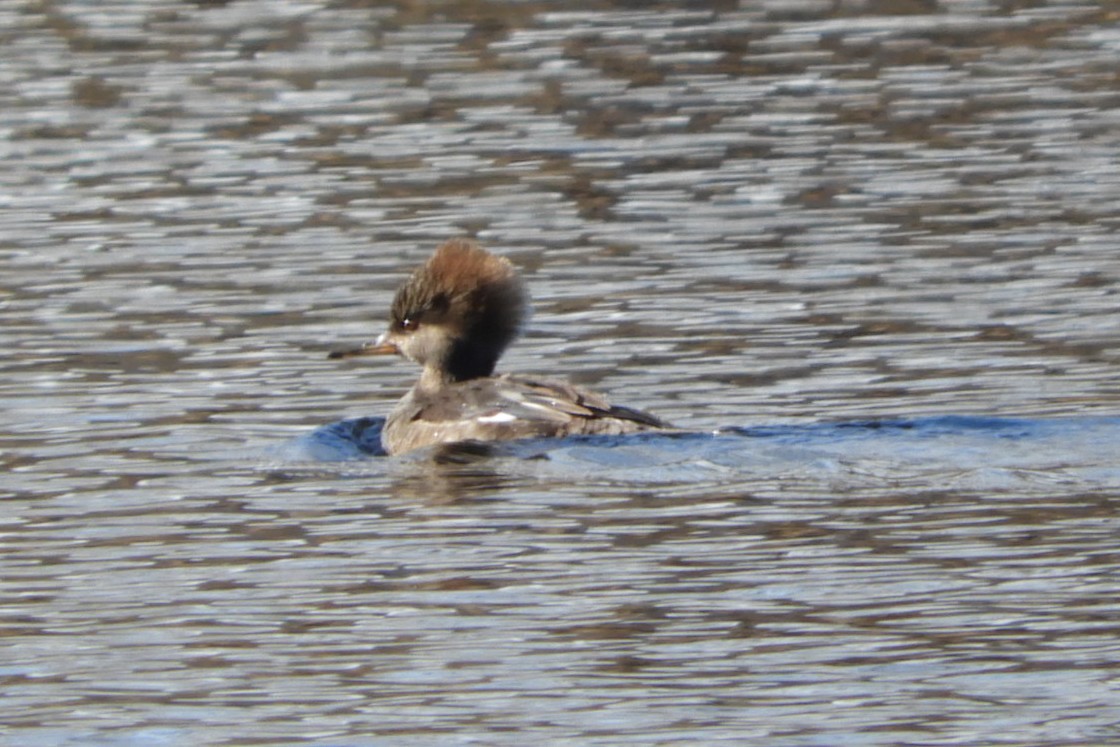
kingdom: Animalia
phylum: Chordata
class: Aves
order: Anseriformes
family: Anatidae
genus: Lophodytes
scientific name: Lophodytes cucullatus
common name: Hooded merganser
